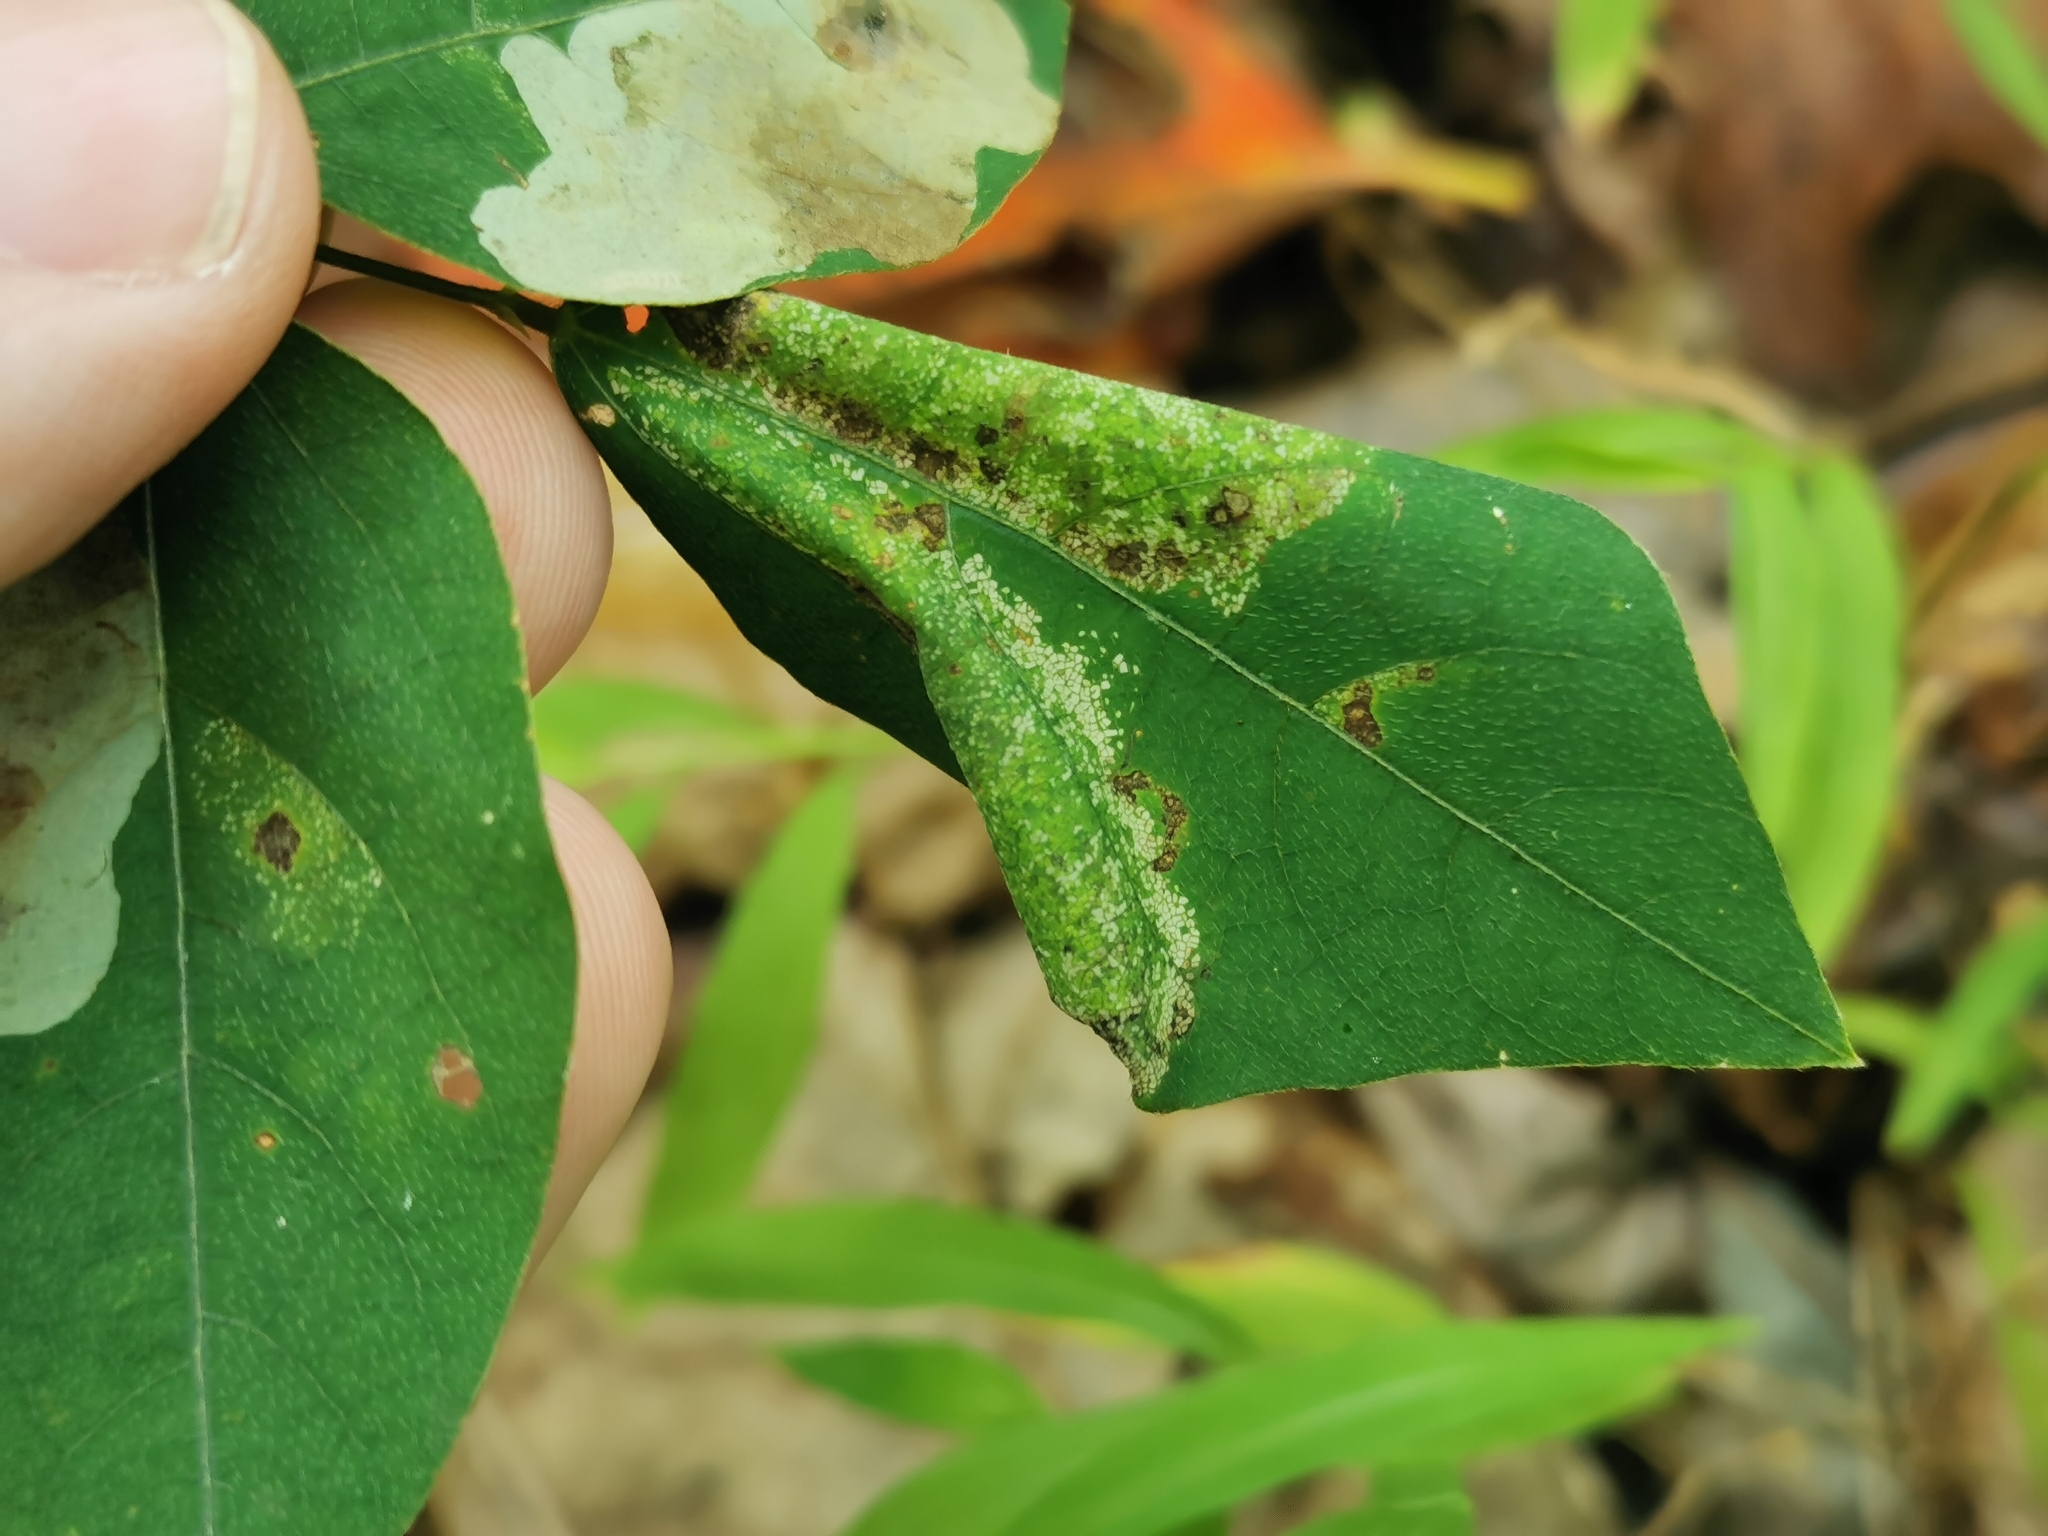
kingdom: Animalia
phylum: Arthropoda
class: Insecta
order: Lepidoptera
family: Gracillariidae
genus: Macrosaccus
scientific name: Macrosaccus morrisella
